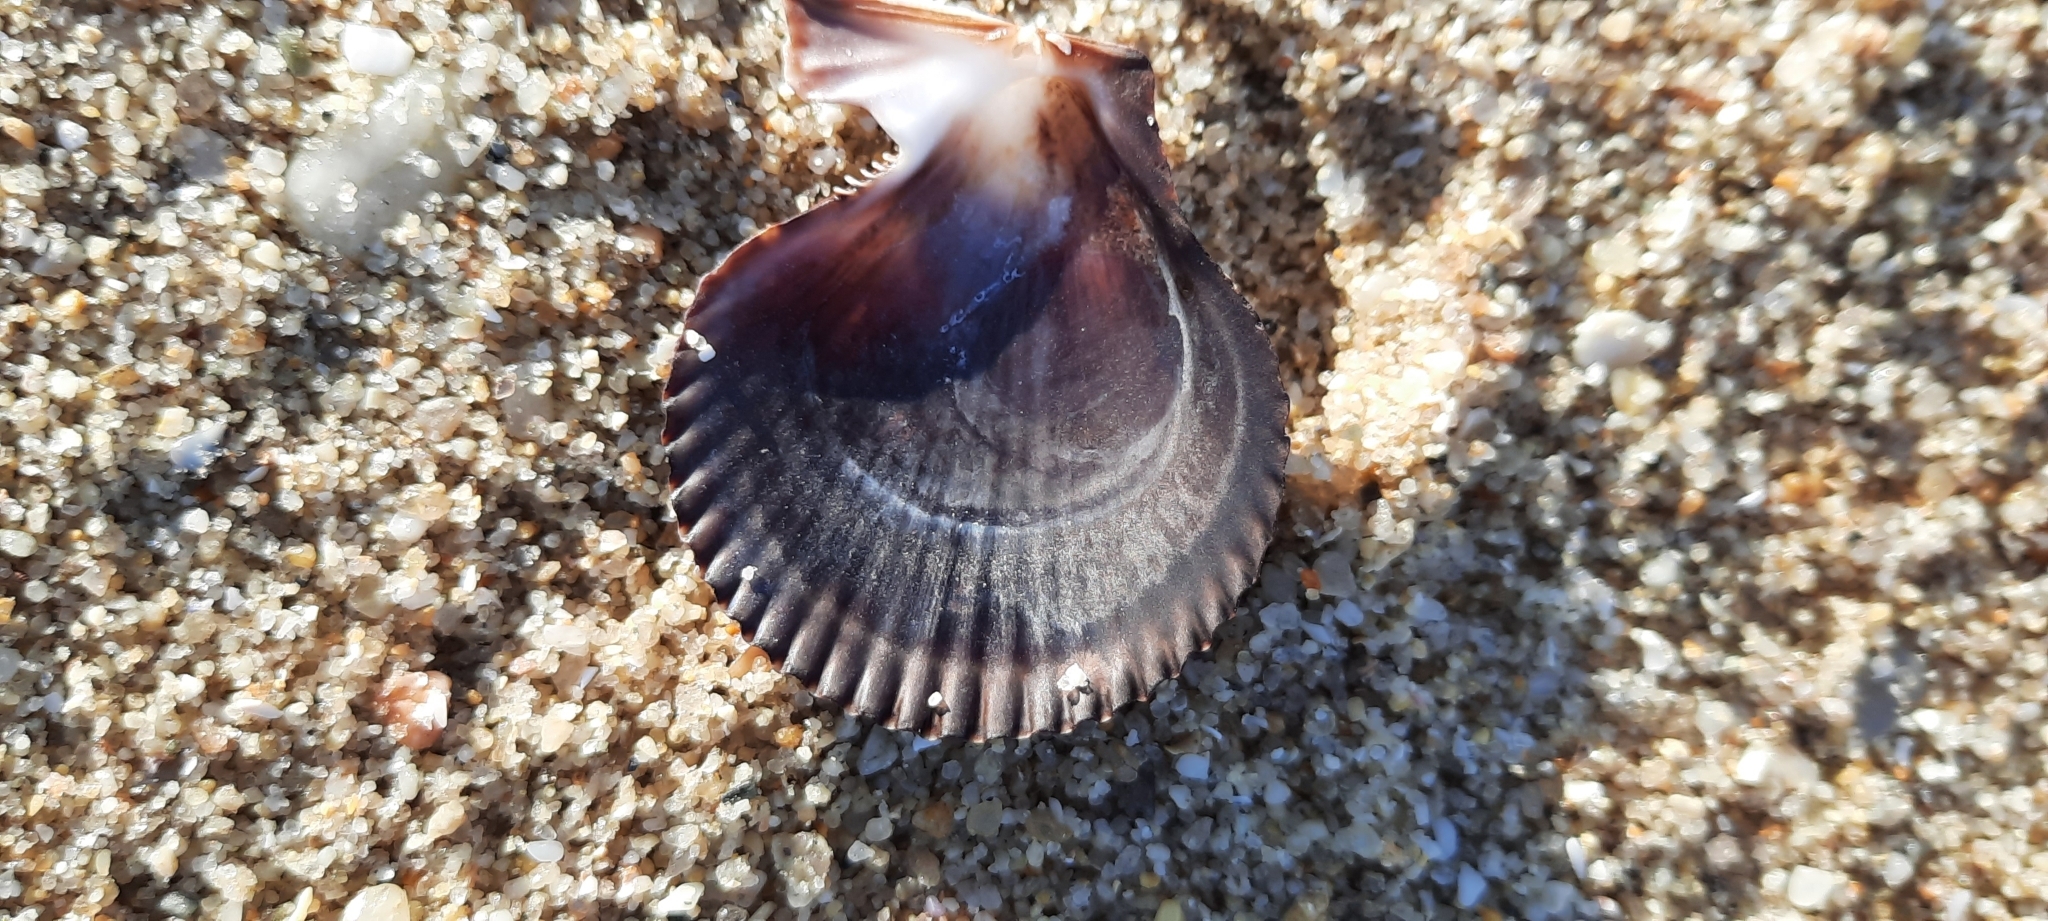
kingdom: Animalia
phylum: Mollusca
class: Bivalvia
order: Pectinida
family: Pectinidae
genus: Mimachlamys
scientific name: Mimachlamys varia
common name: Variegated scallop
